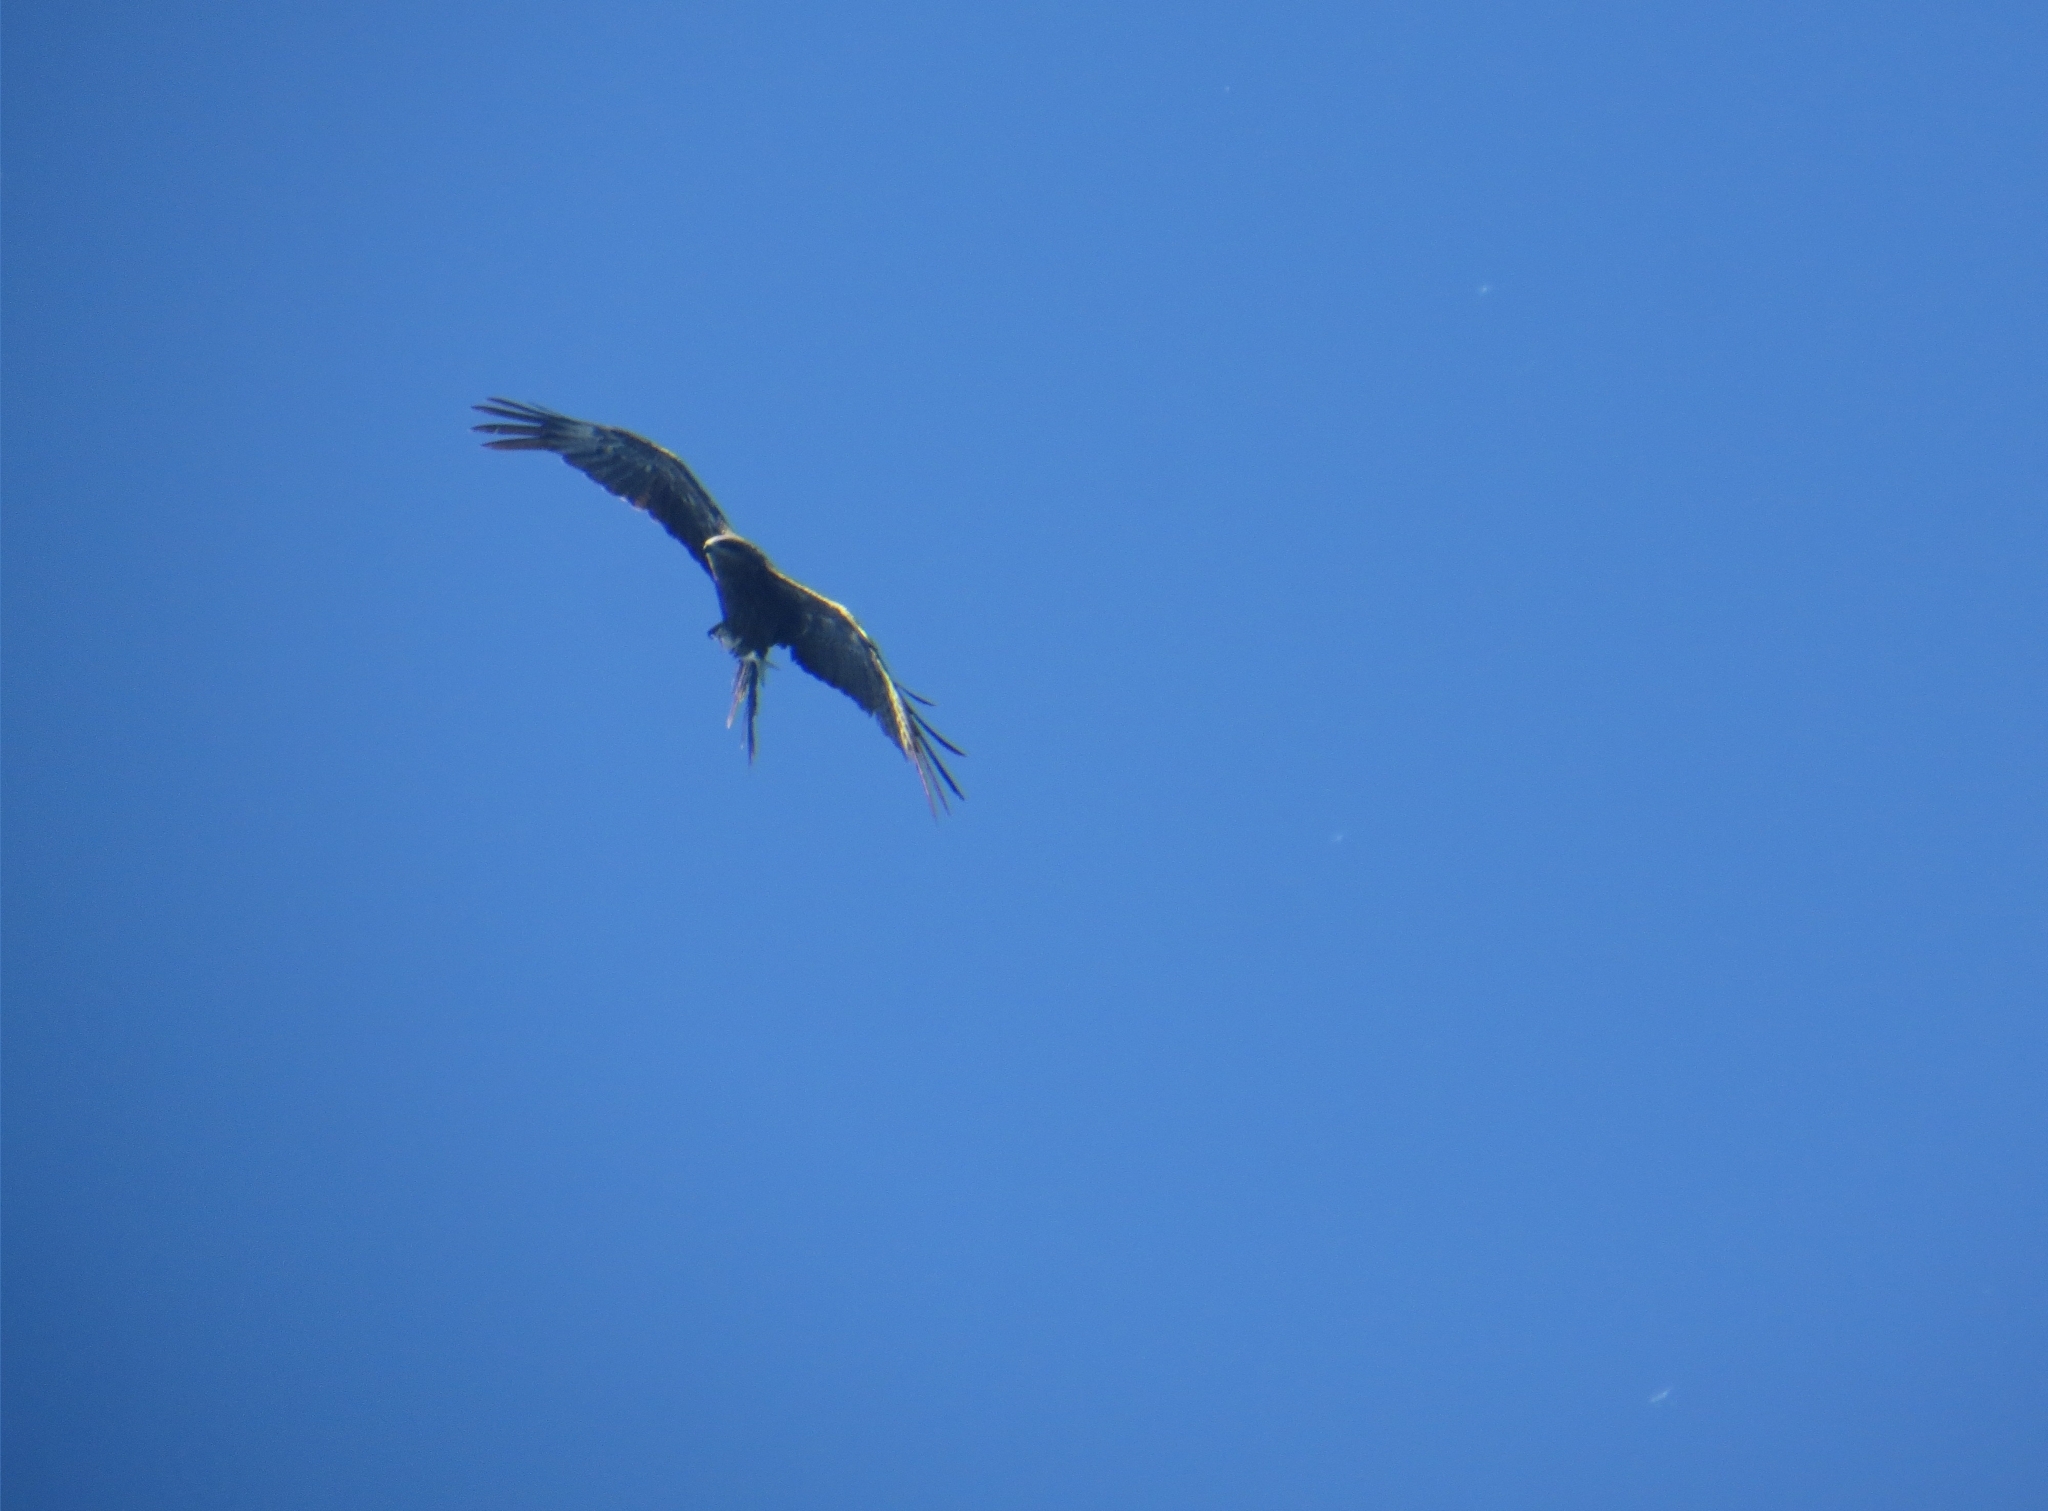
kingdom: Animalia
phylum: Chordata
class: Aves
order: Accipitriformes
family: Accipitridae
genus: Milvus
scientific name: Milvus migrans
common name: Black kite
